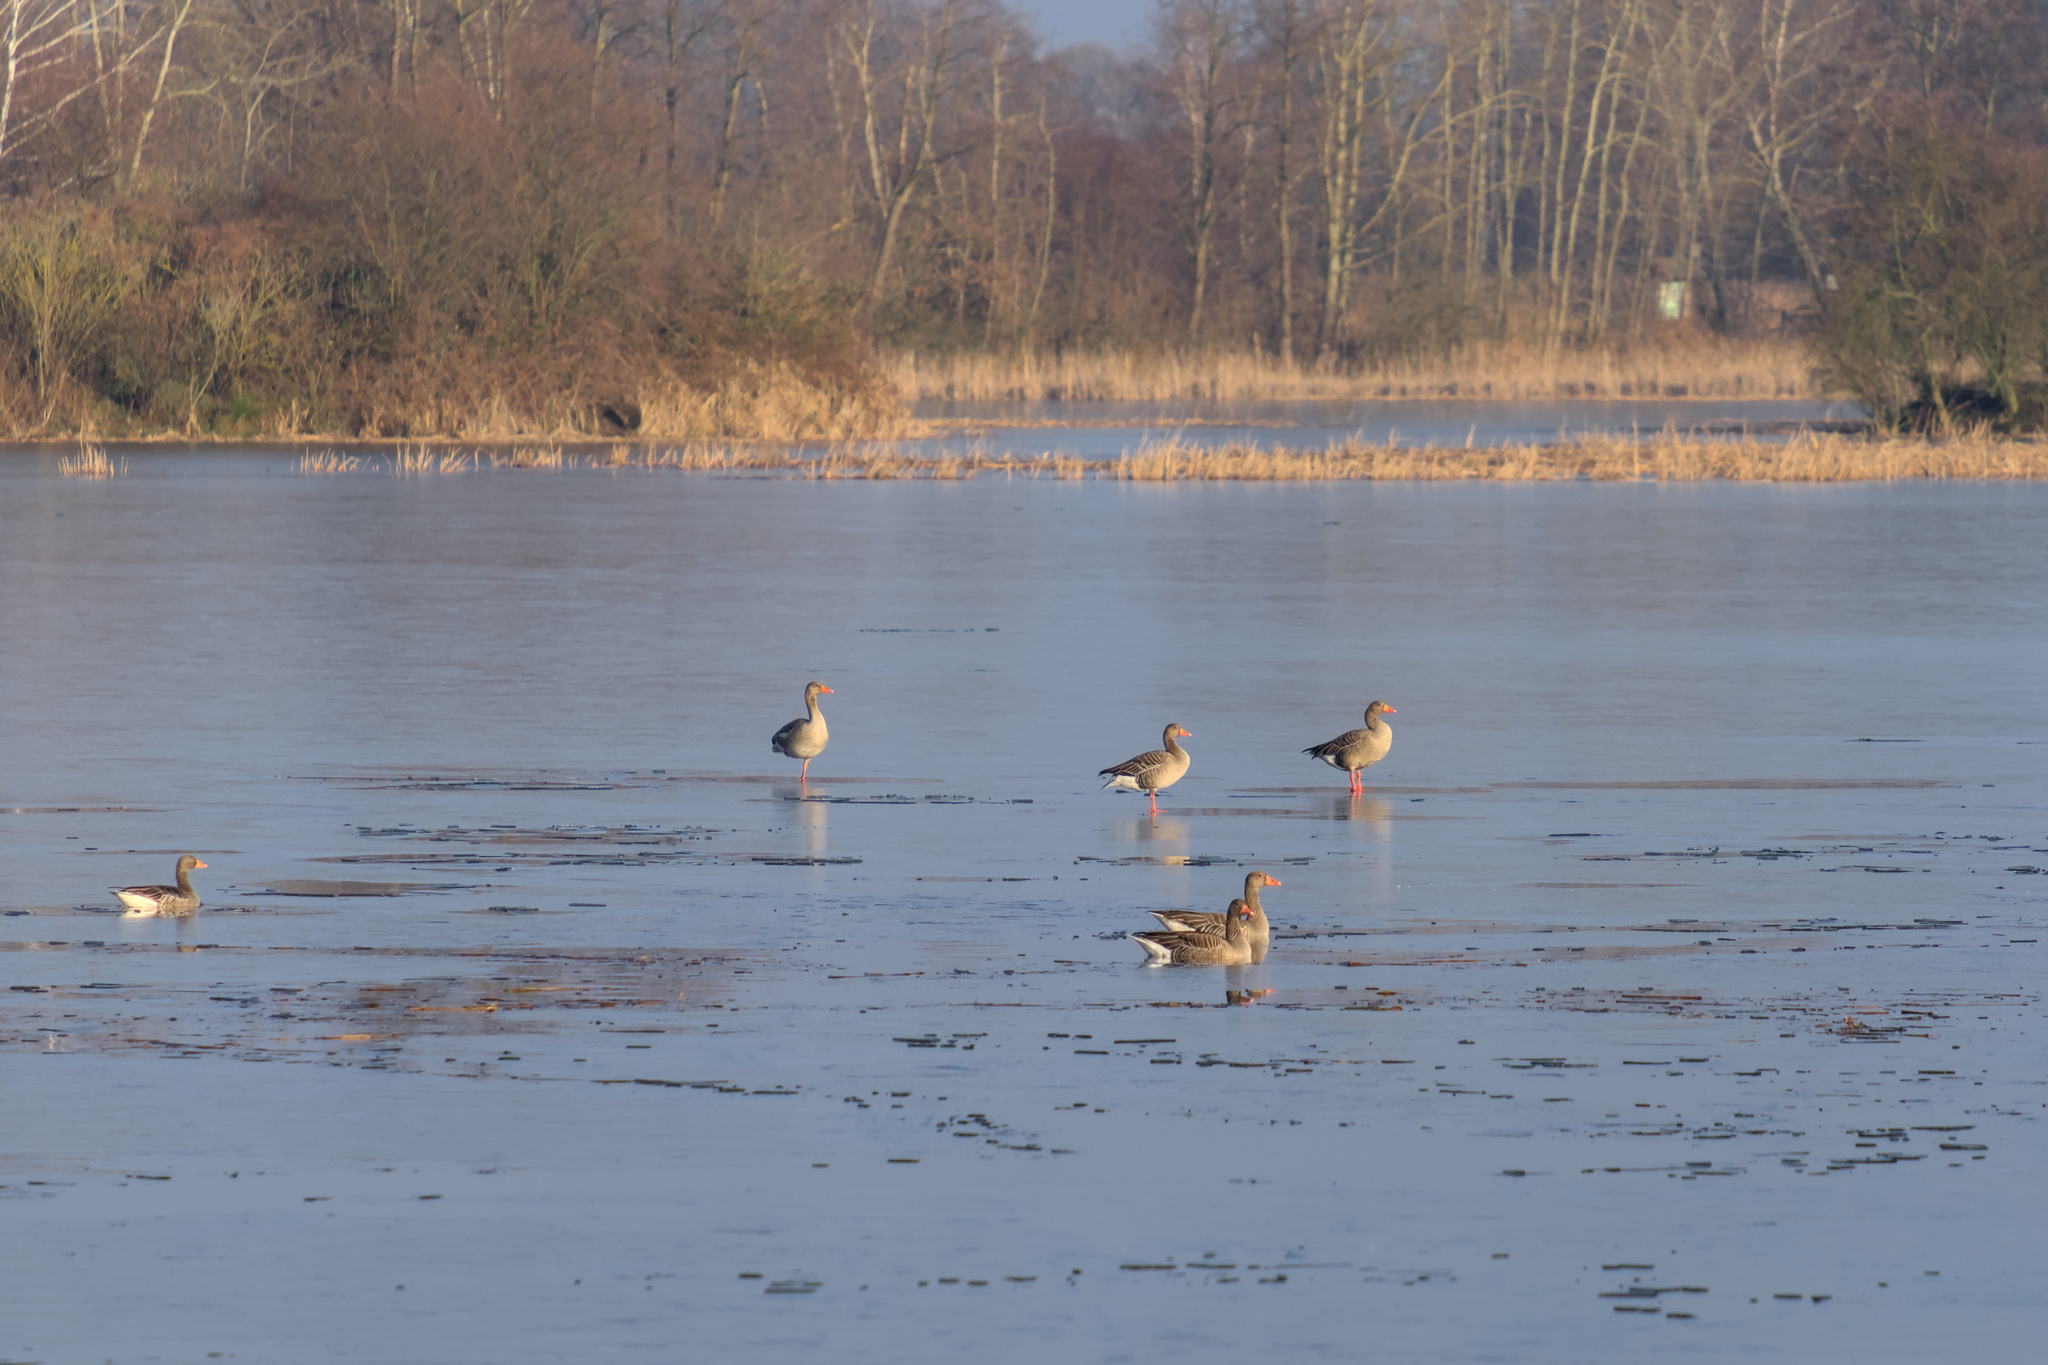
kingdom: Animalia
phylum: Chordata
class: Aves
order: Anseriformes
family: Anatidae
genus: Anser
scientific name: Anser anser
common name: Greylag goose
